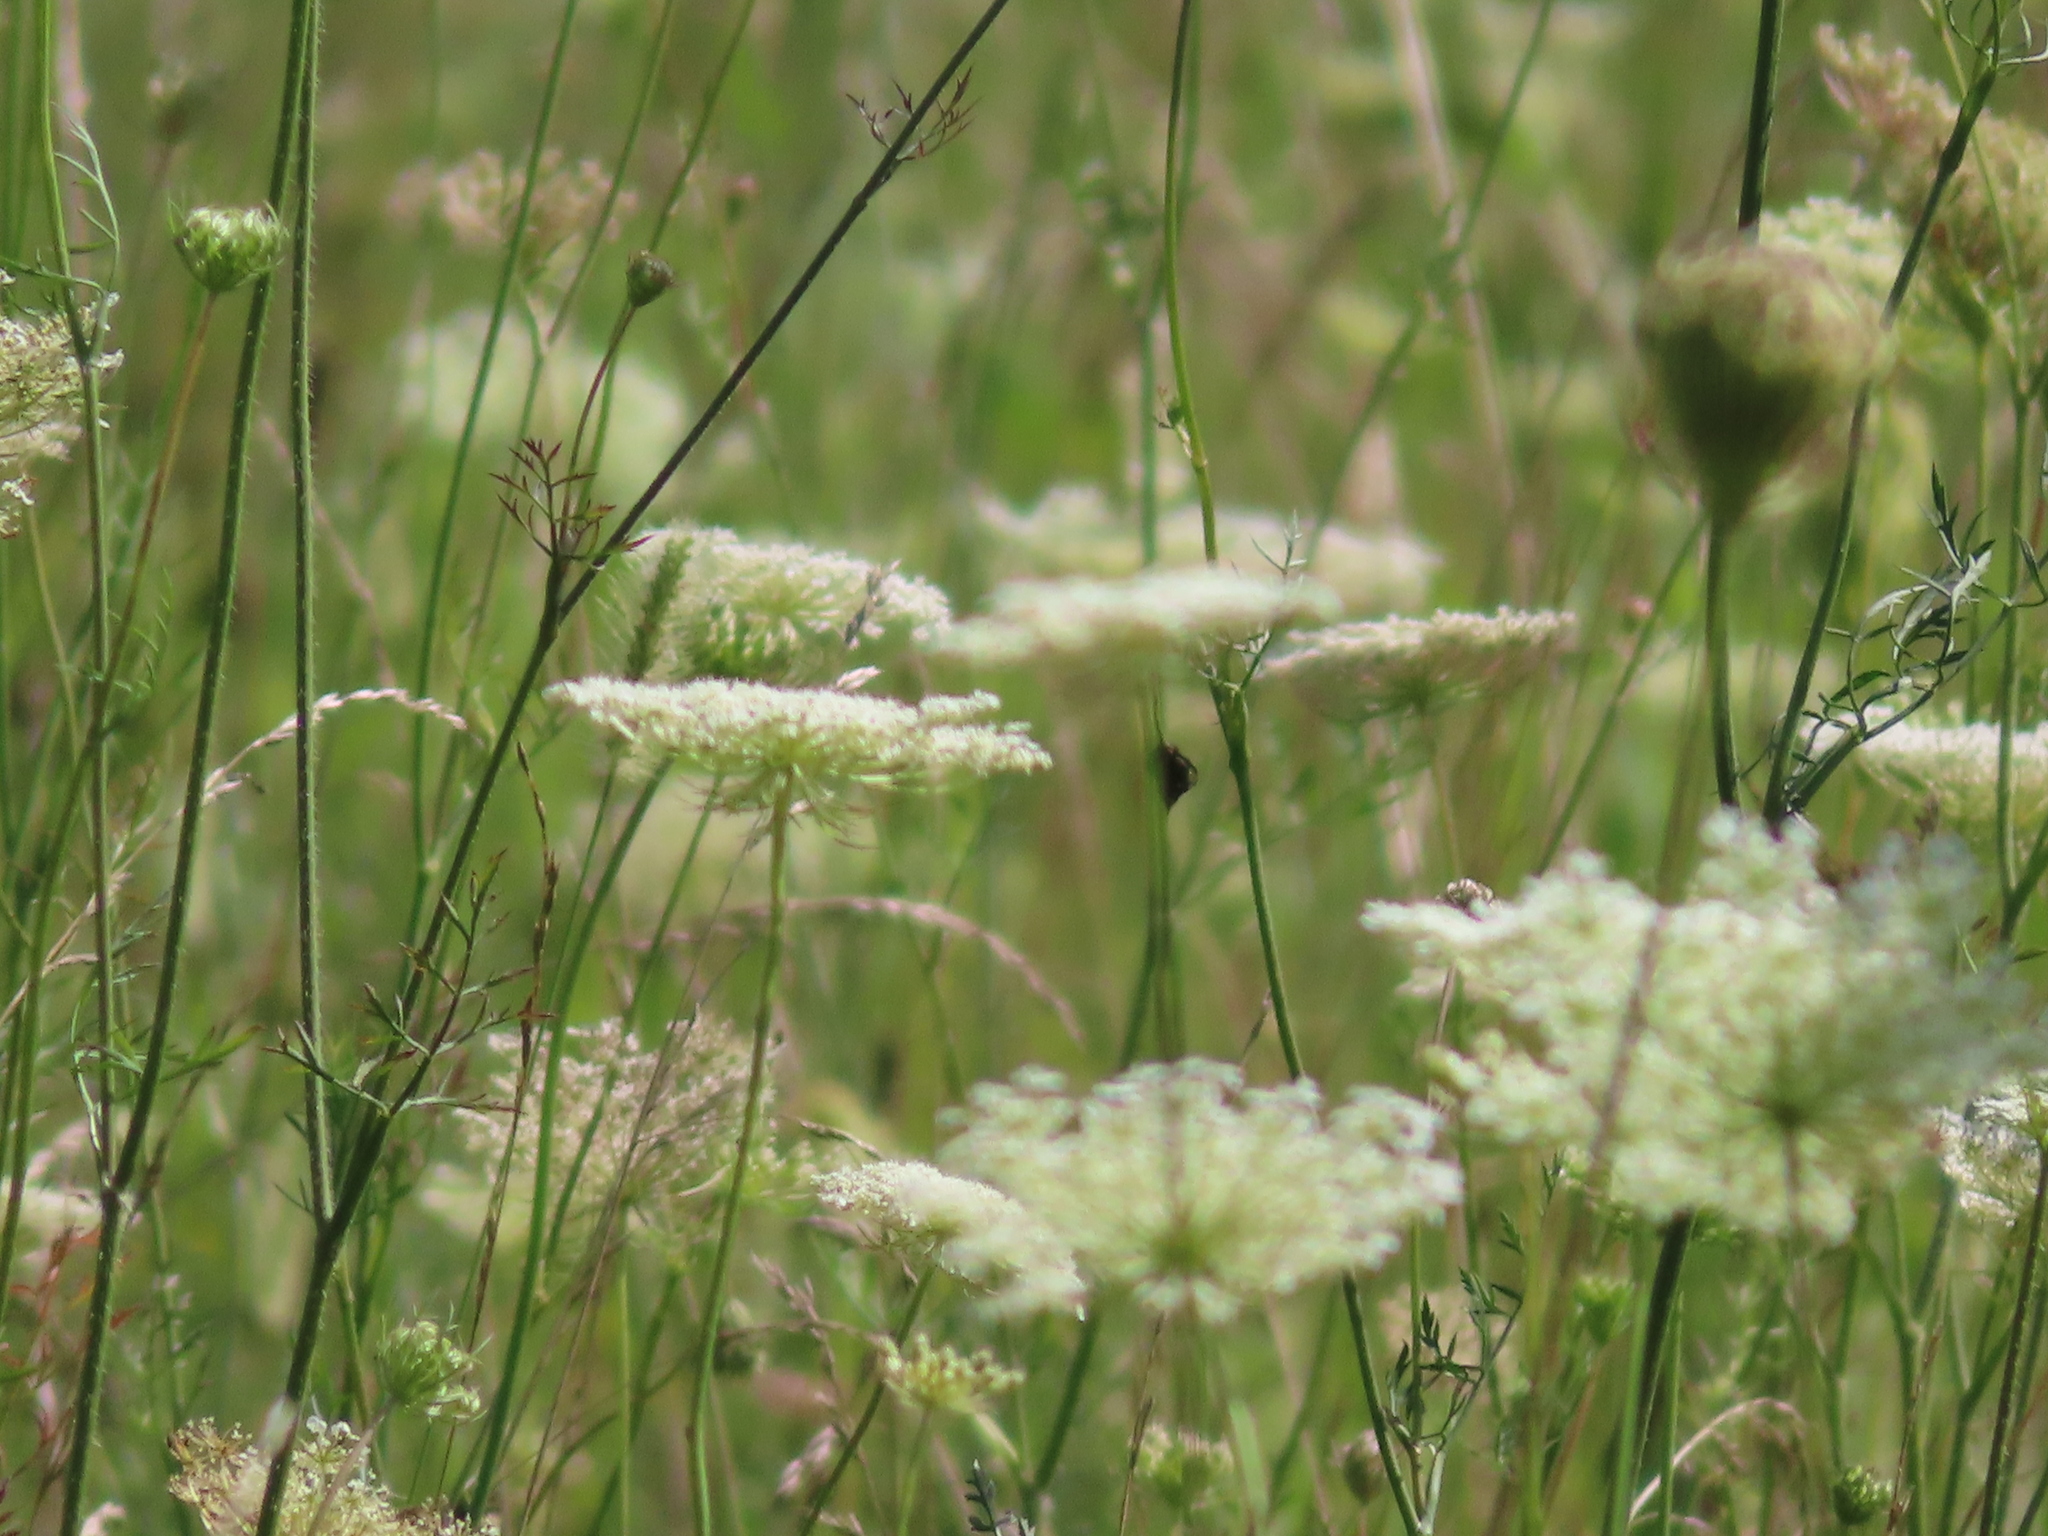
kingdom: Plantae
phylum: Tracheophyta
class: Magnoliopsida
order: Apiales
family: Apiaceae
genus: Daucus
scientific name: Daucus carota
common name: Wild carrot
